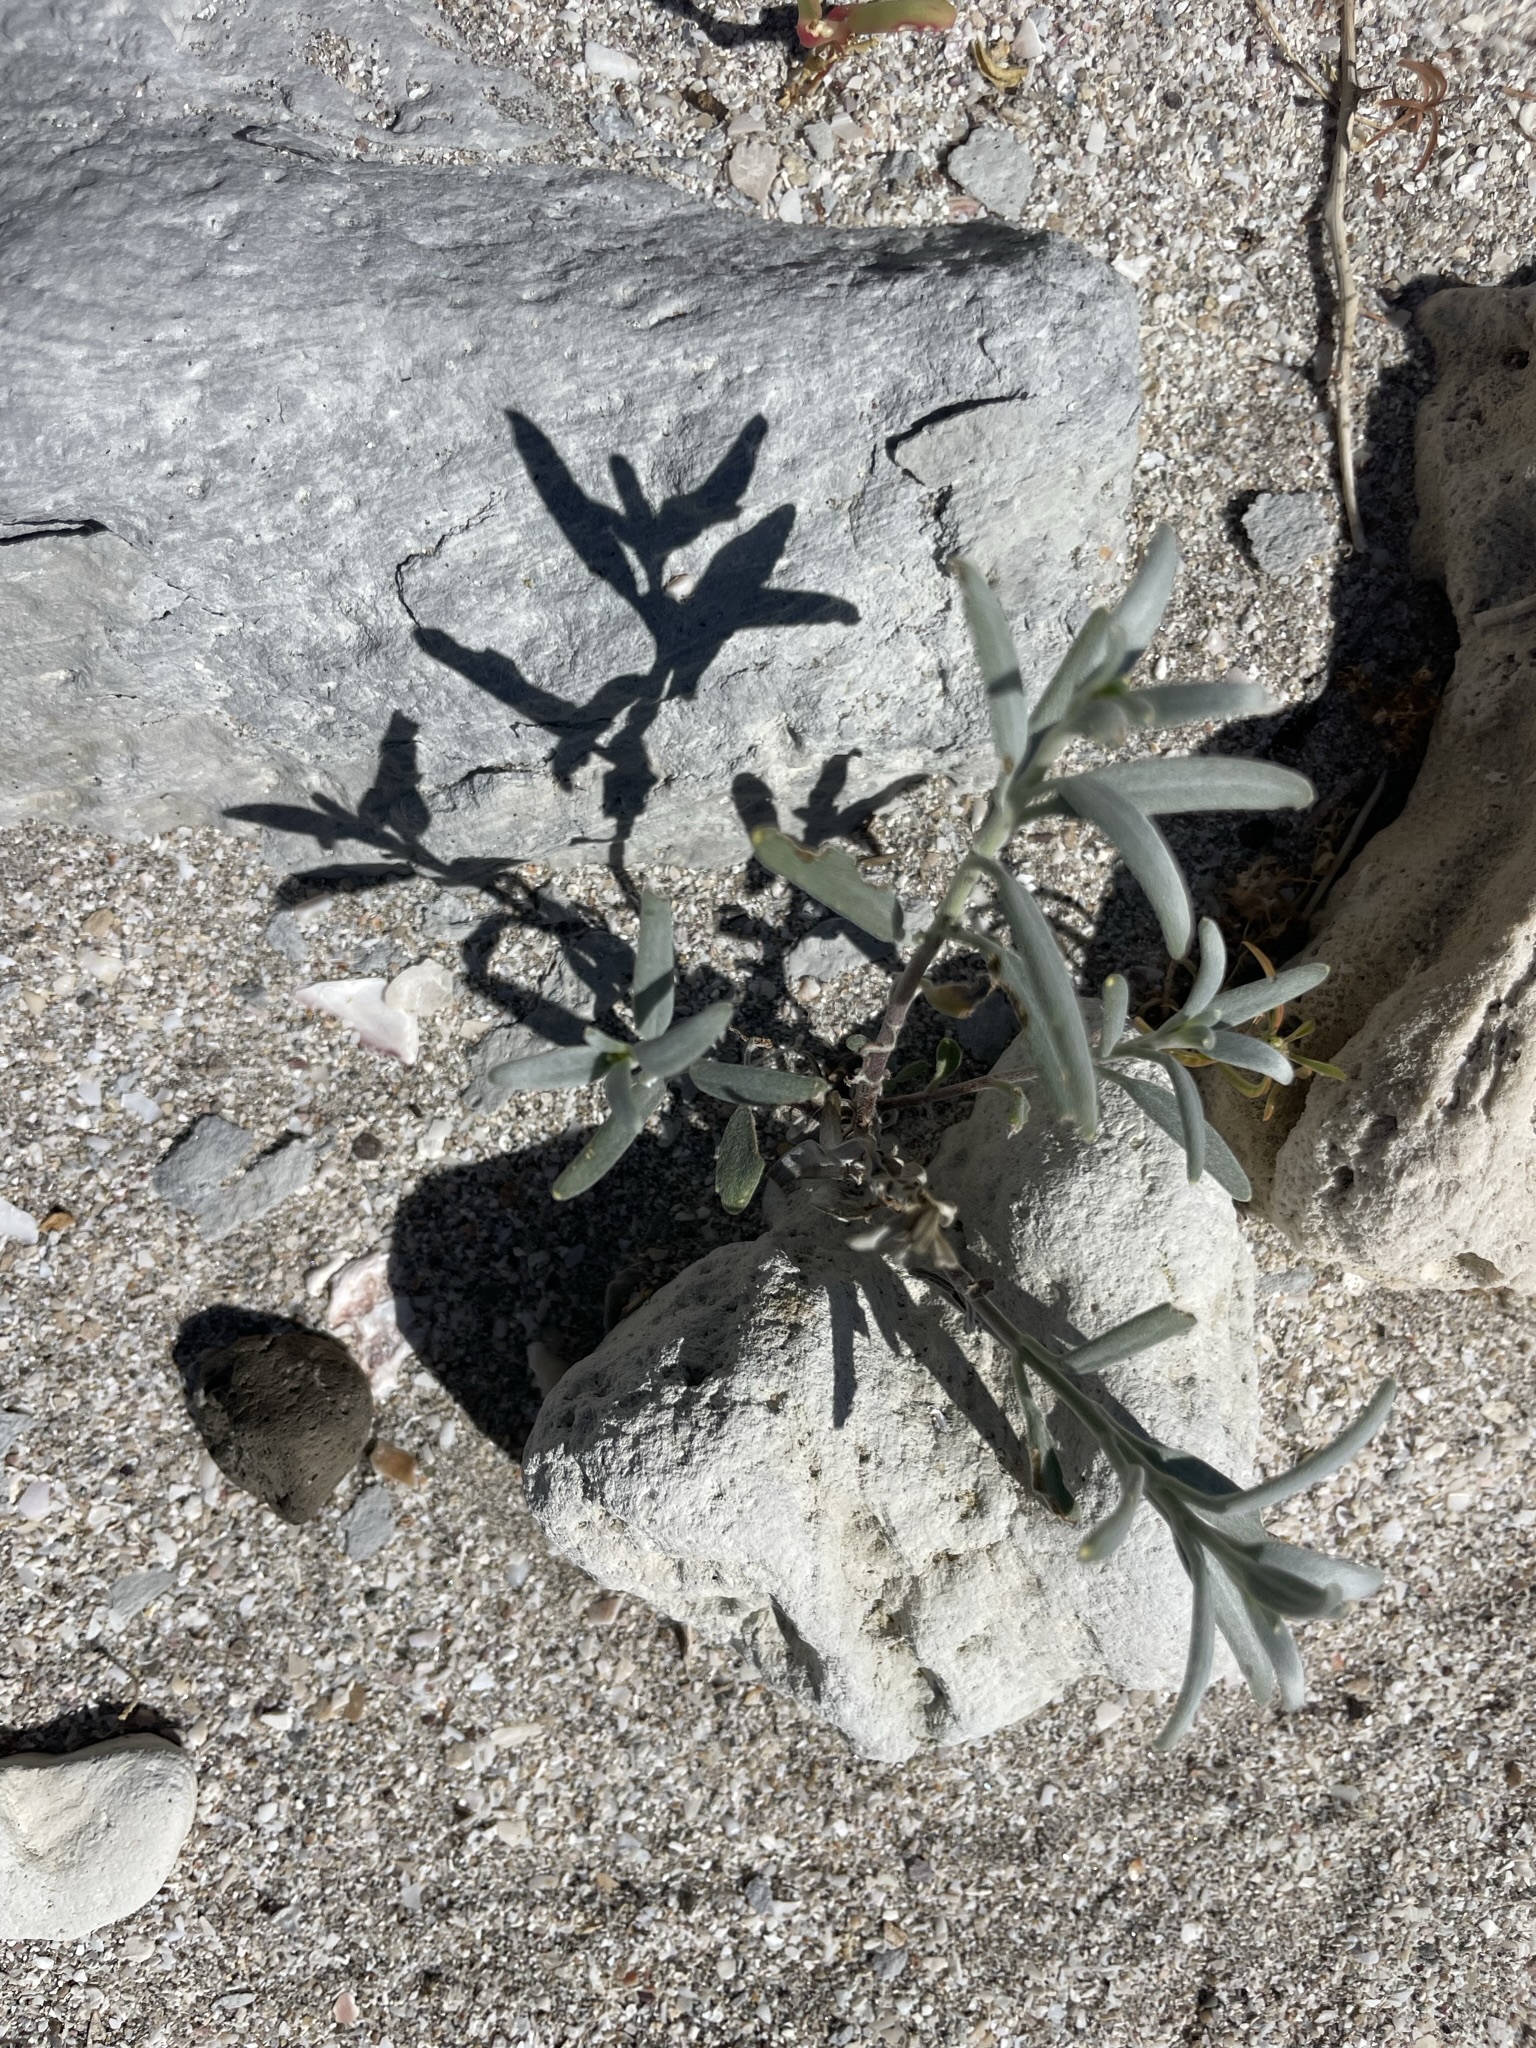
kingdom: Plantae
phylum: Tracheophyta
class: Magnoliopsida
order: Asterales
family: Asteraceae
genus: Palafoxia
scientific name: Palafoxia linearis
